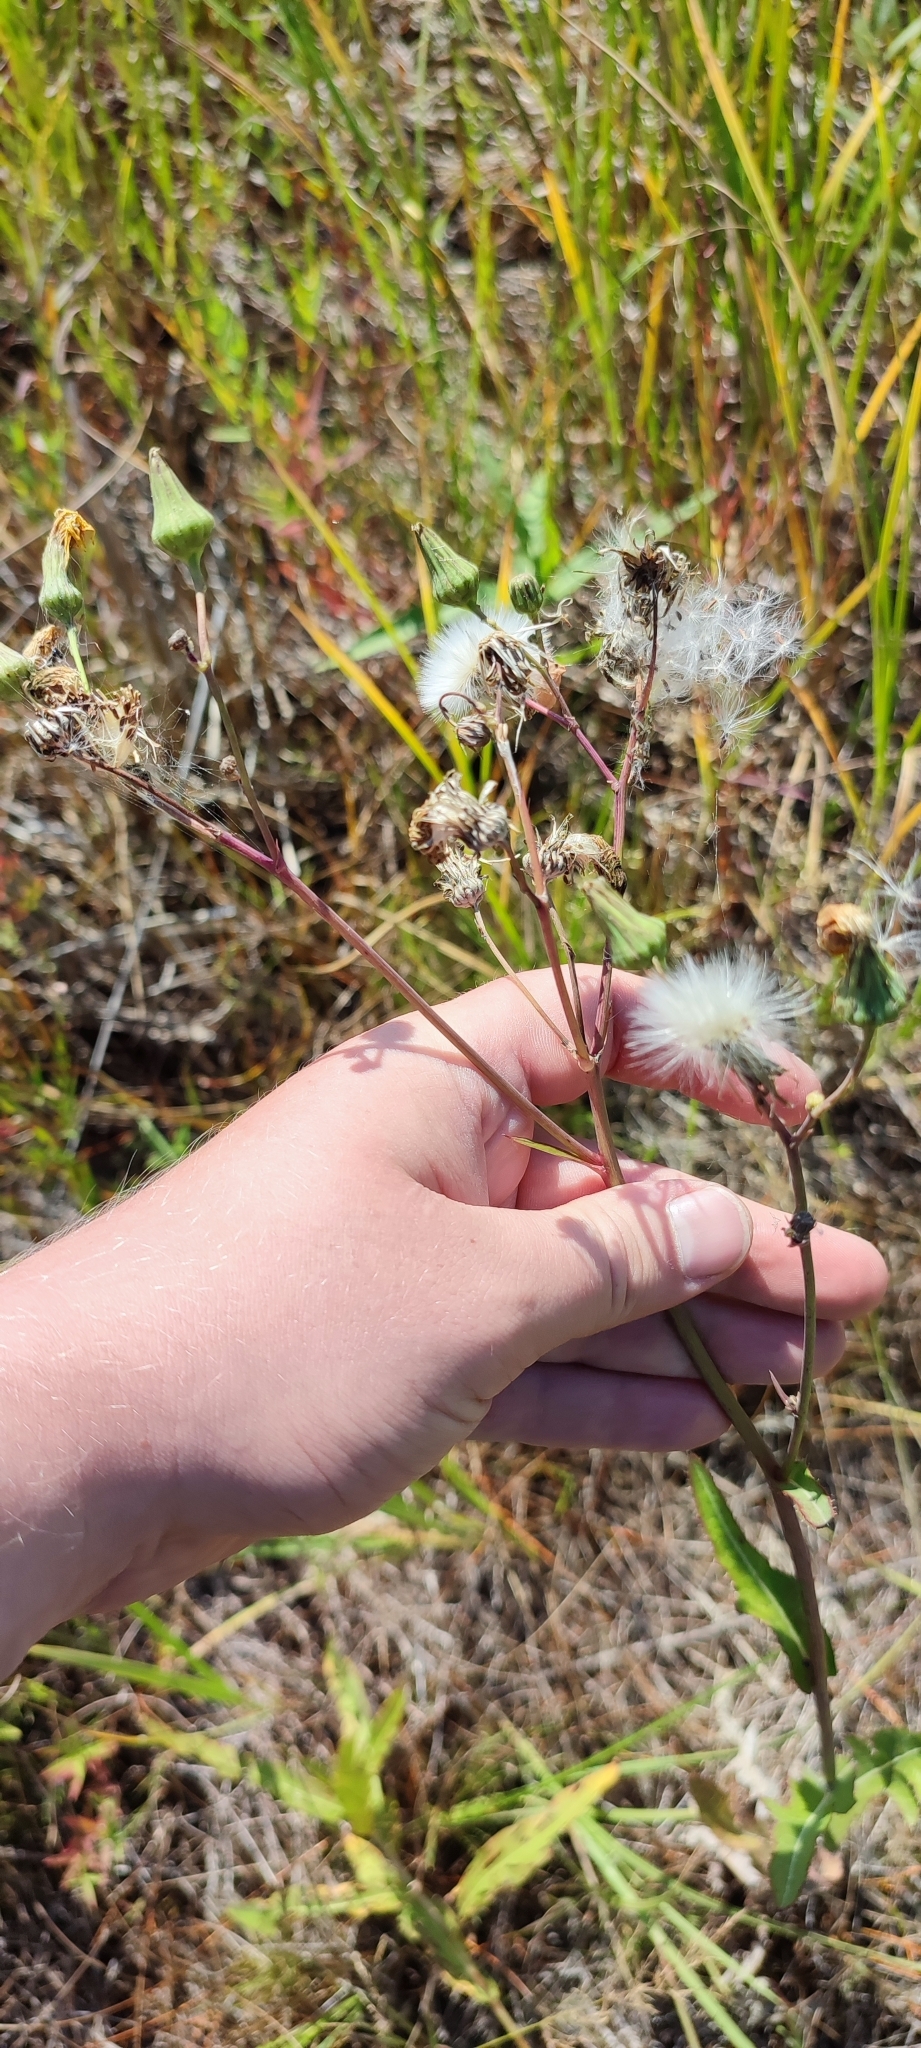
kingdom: Plantae
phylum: Tracheophyta
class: Magnoliopsida
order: Asterales
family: Asteraceae
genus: Sonchus
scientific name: Sonchus arvensis
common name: Perennial sow-thistle
